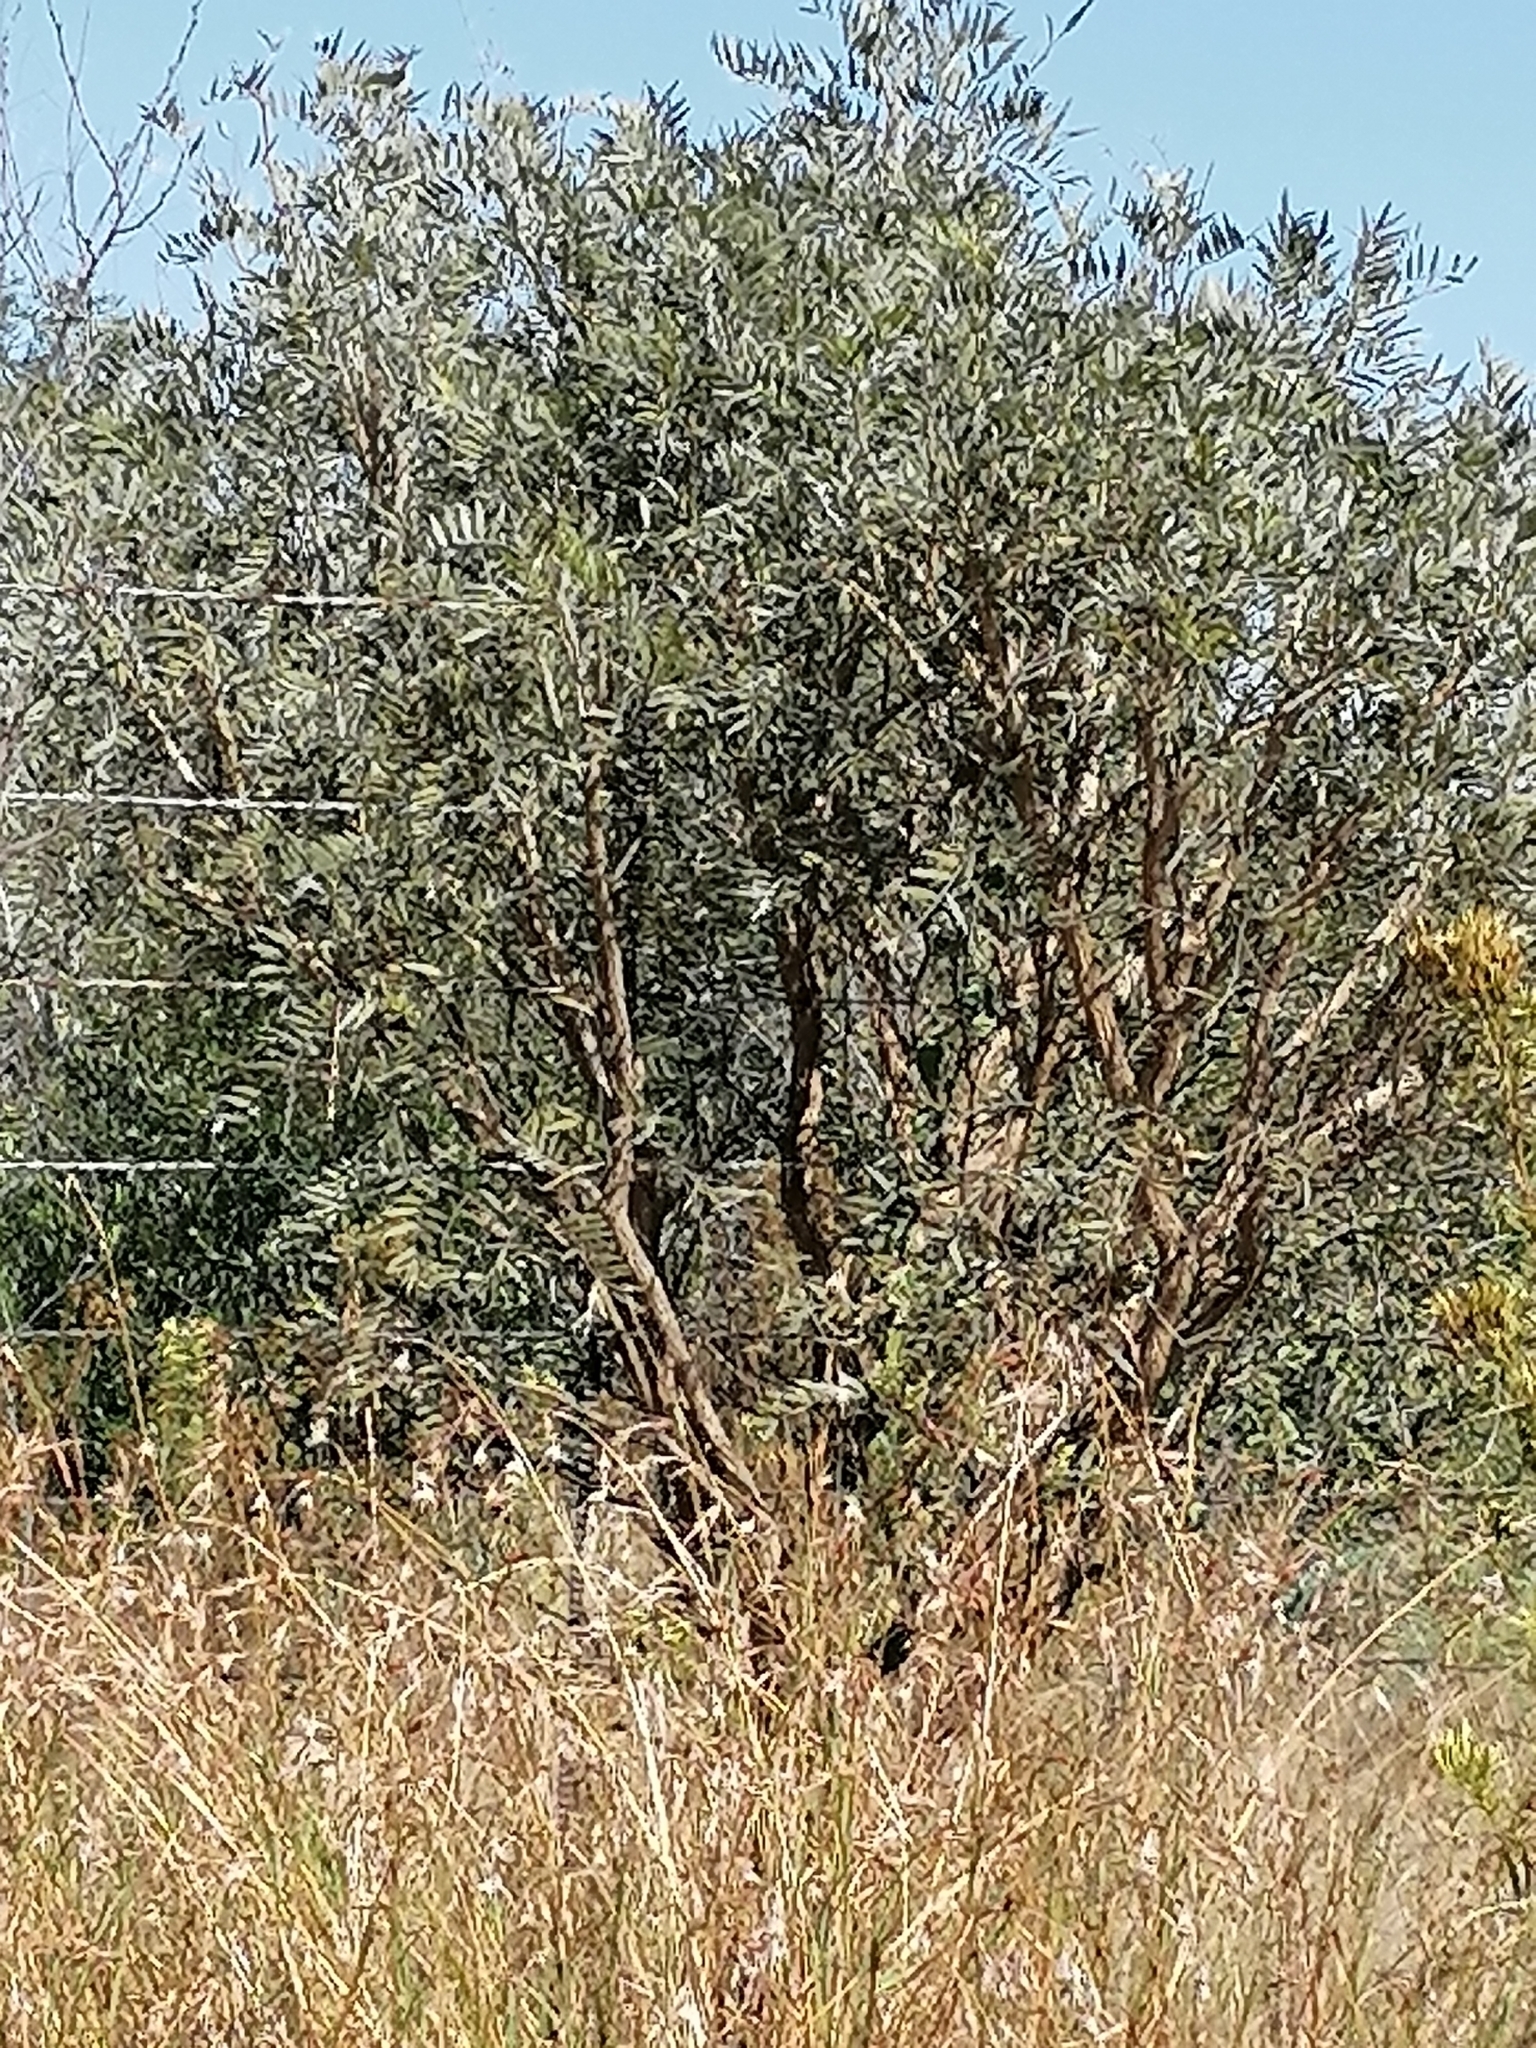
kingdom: Plantae
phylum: Tracheophyta
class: Magnoliopsida
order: Fabales
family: Fabaceae
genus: Mundulea
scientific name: Mundulea sericea
